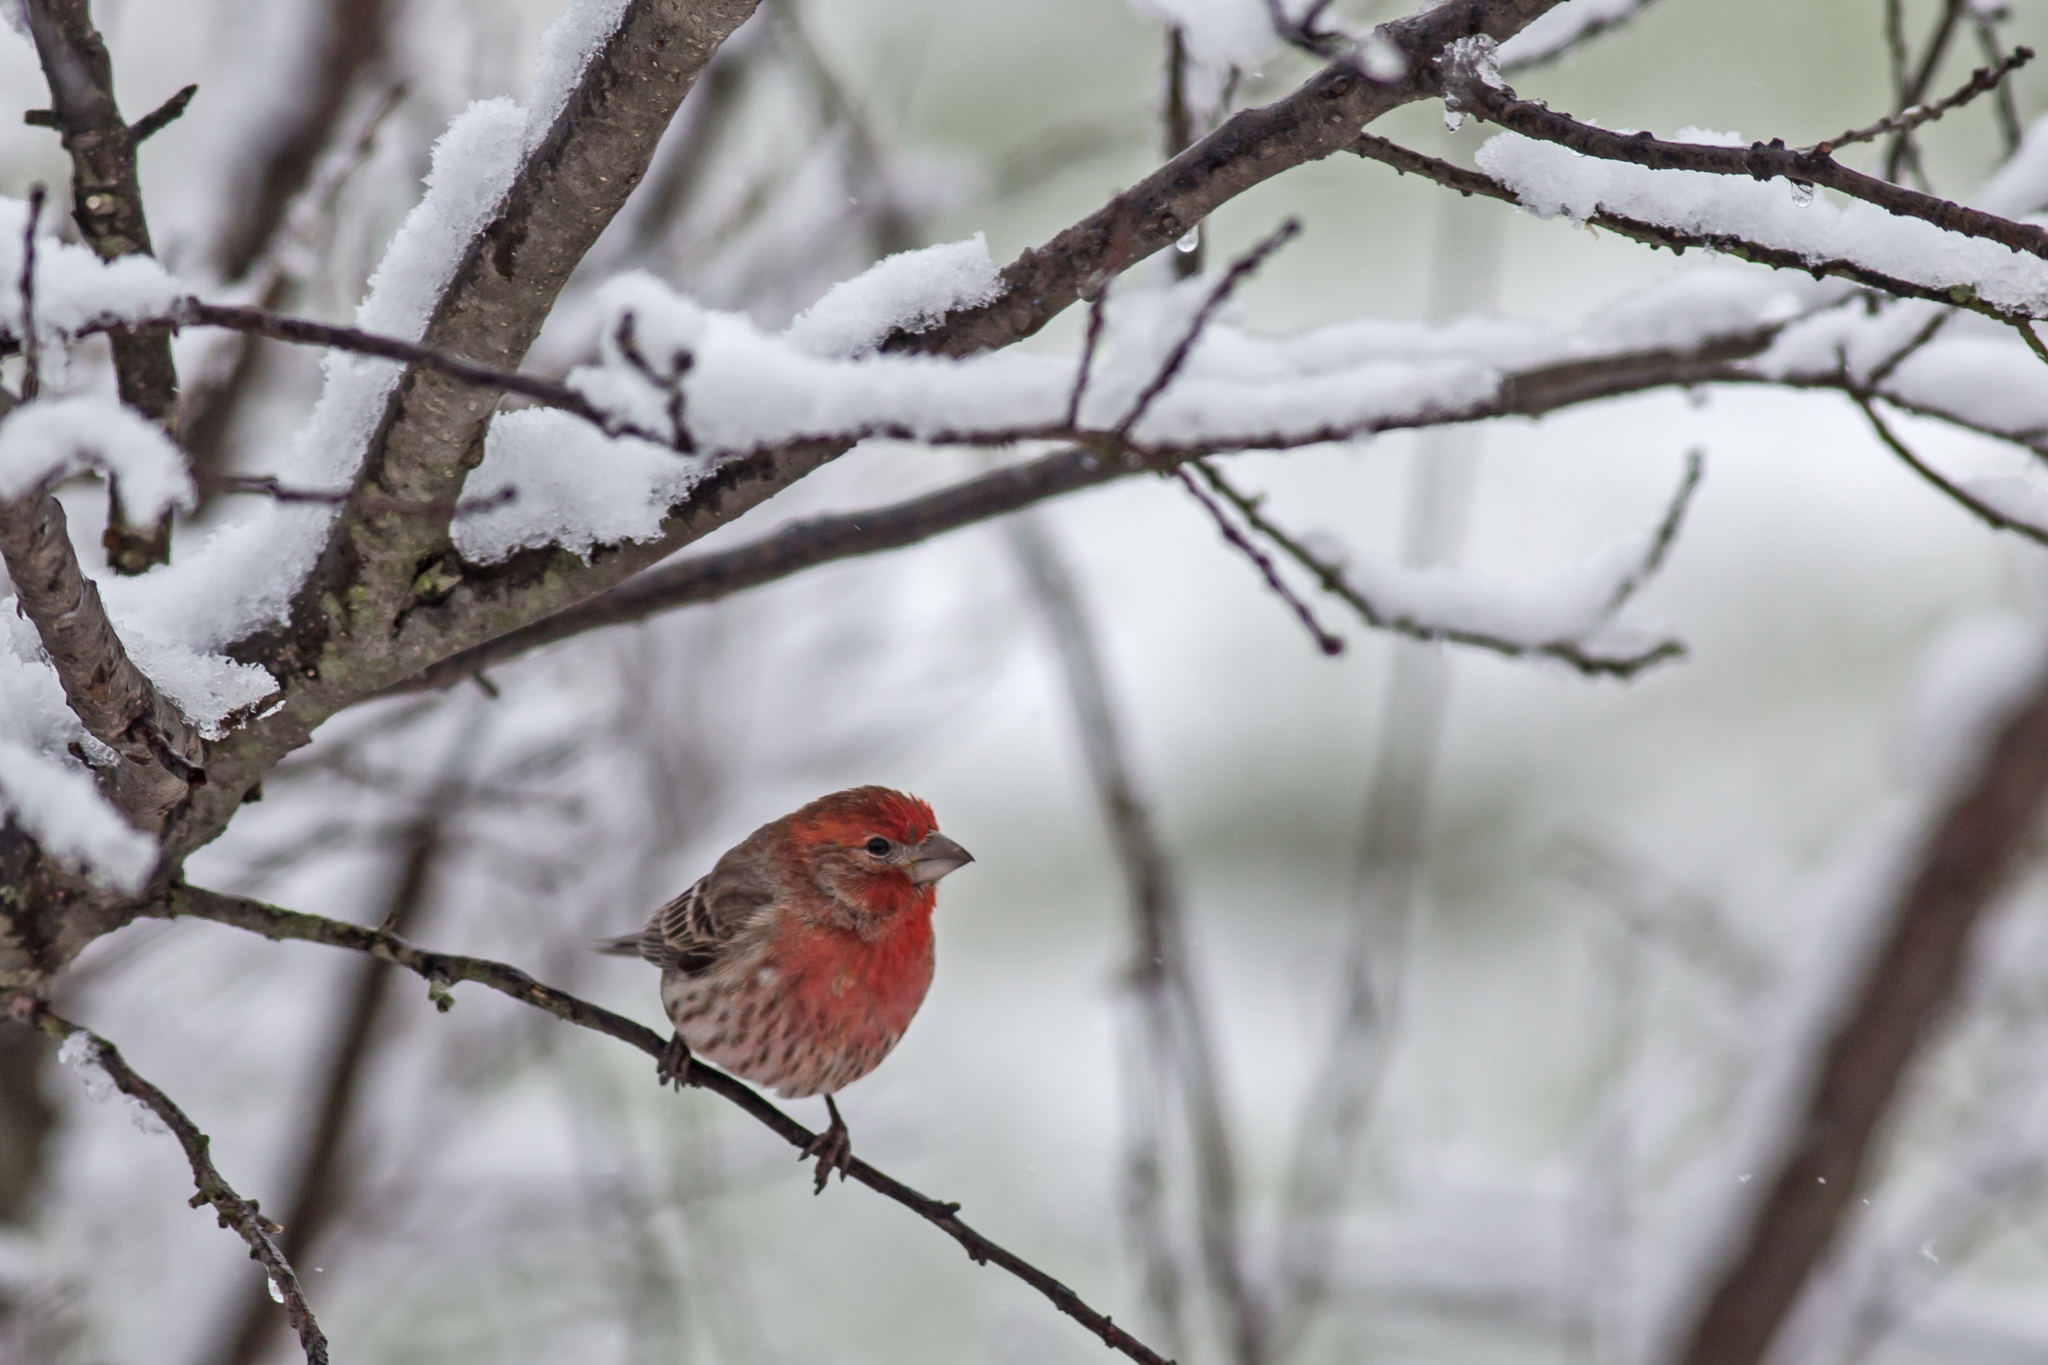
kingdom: Animalia
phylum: Chordata
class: Aves
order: Passeriformes
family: Fringillidae
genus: Haemorhous
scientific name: Haemorhous mexicanus
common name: House finch
